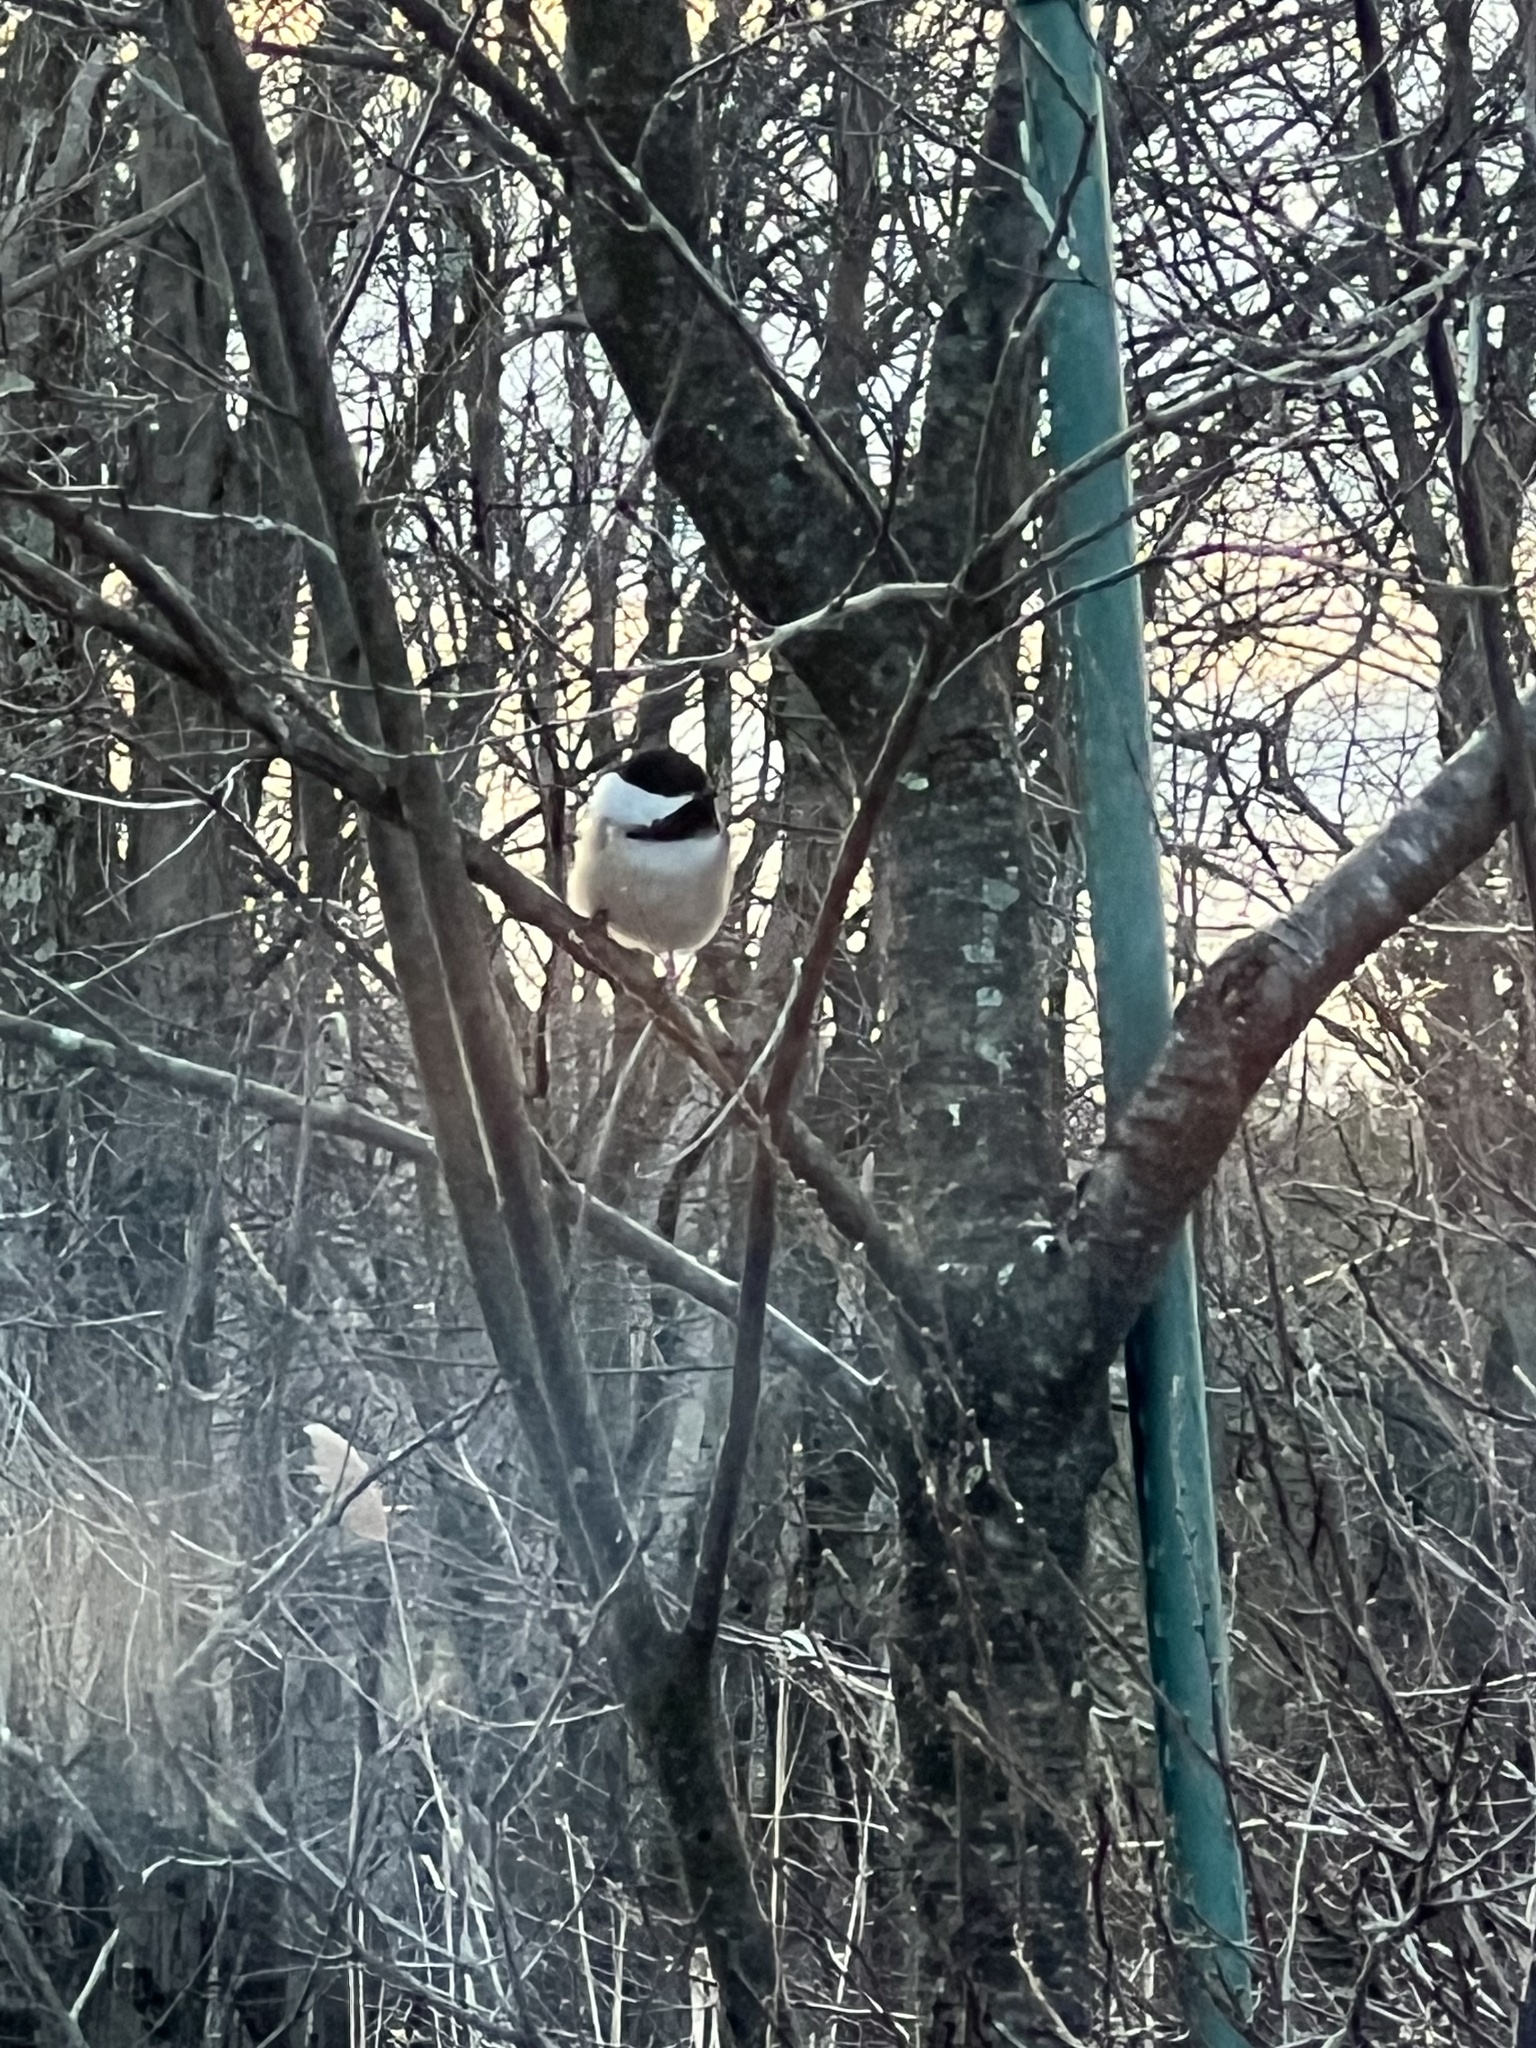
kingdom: Animalia
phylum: Chordata
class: Aves
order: Passeriformes
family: Paridae
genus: Poecile
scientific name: Poecile atricapillus
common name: Black-capped chickadee
